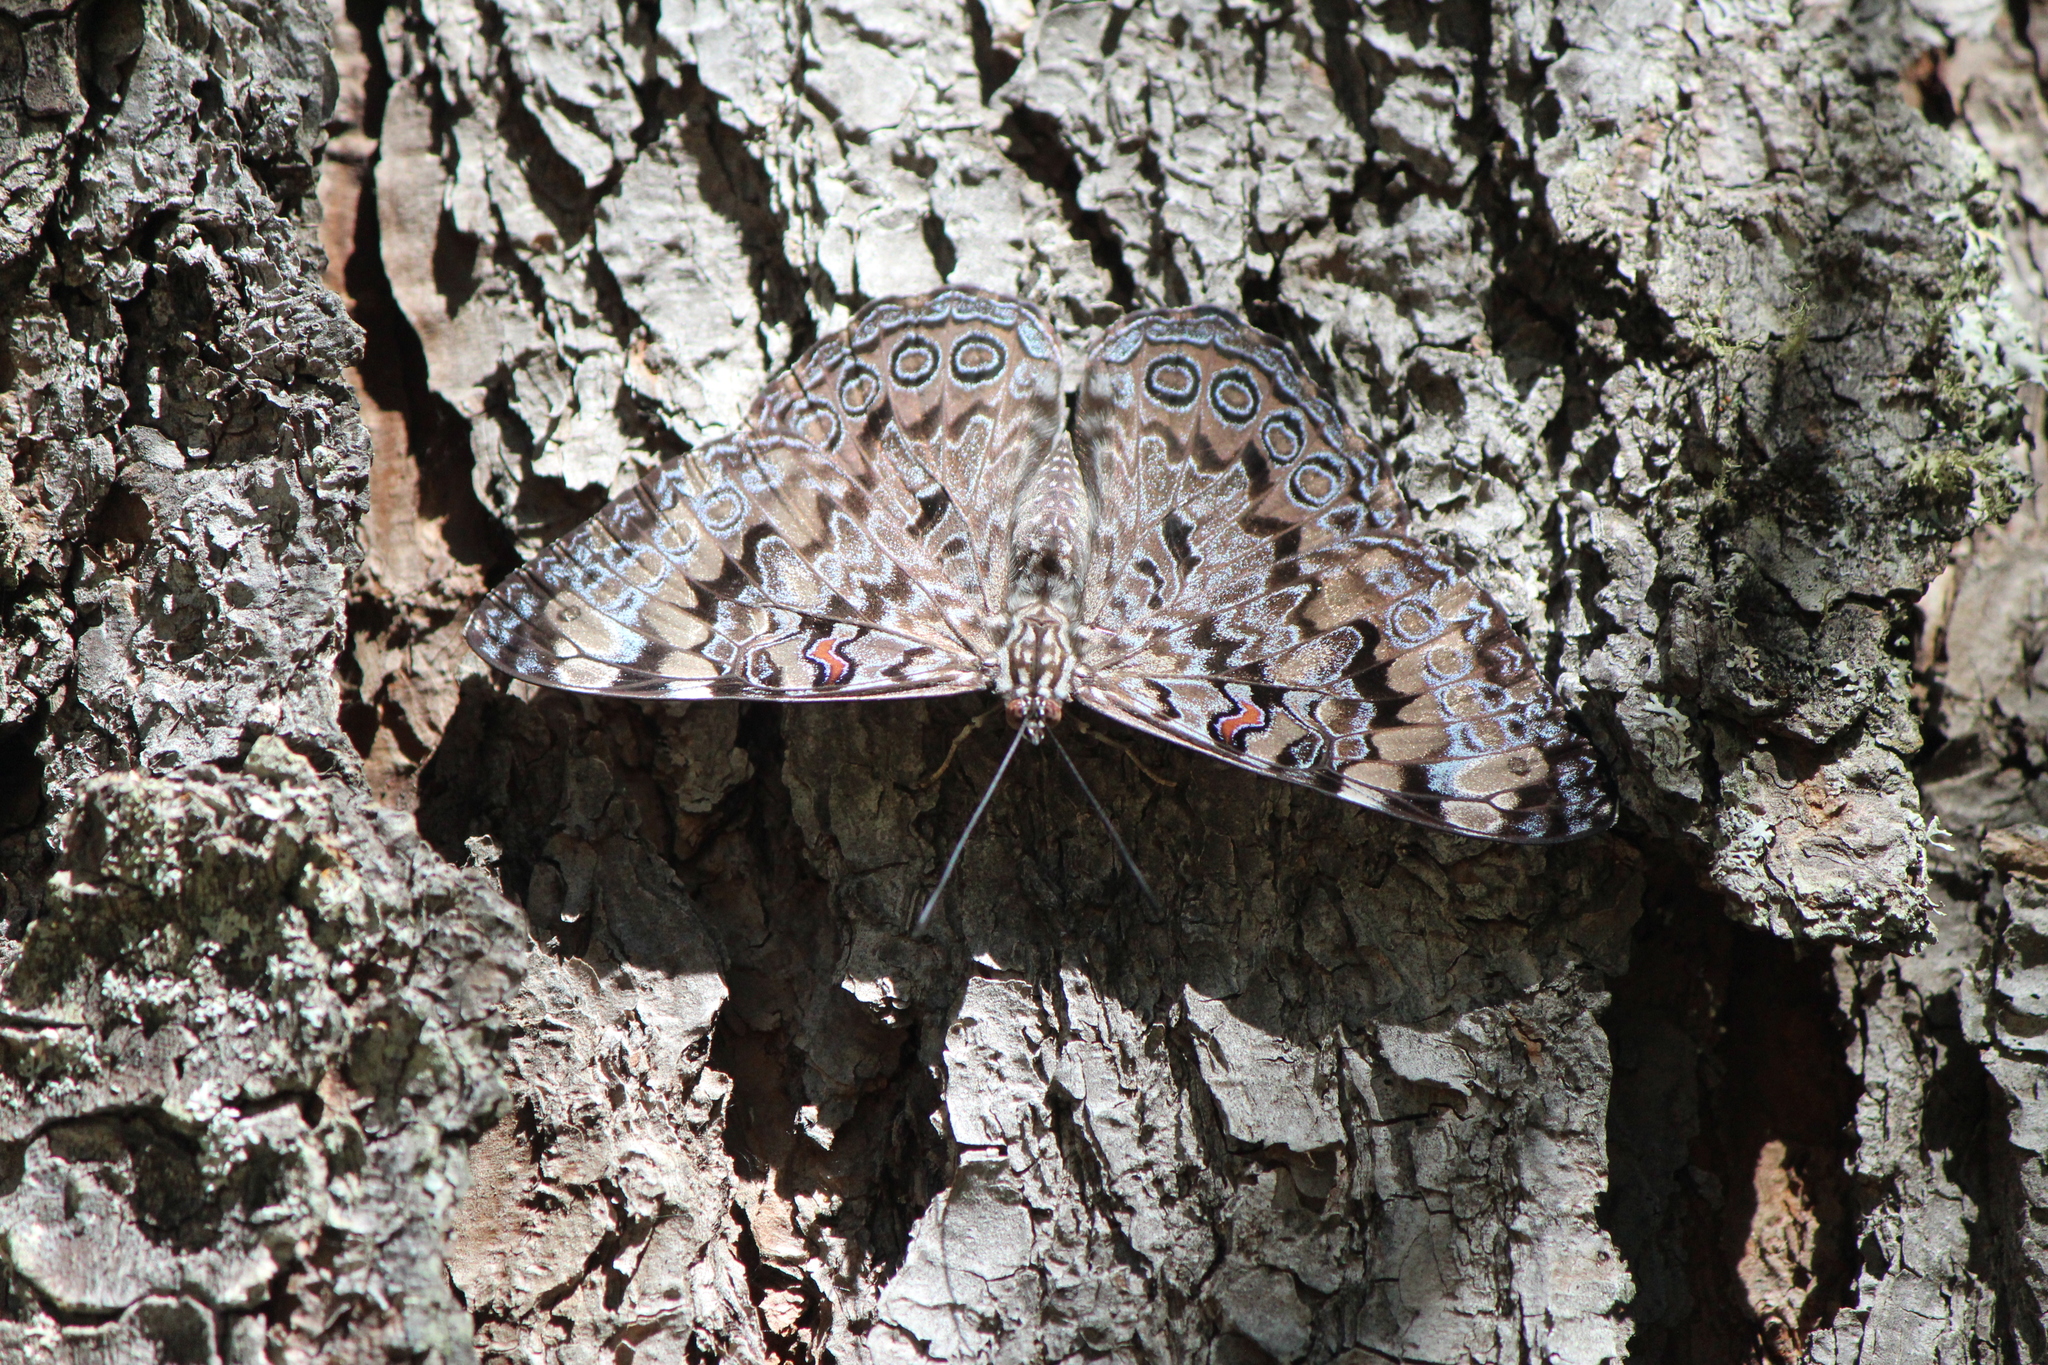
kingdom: Animalia
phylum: Arthropoda
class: Insecta
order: Lepidoptera
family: Nymphalidae
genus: Hamadryas
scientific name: Hamadryas guatemalena
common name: Guatemalan cracker
